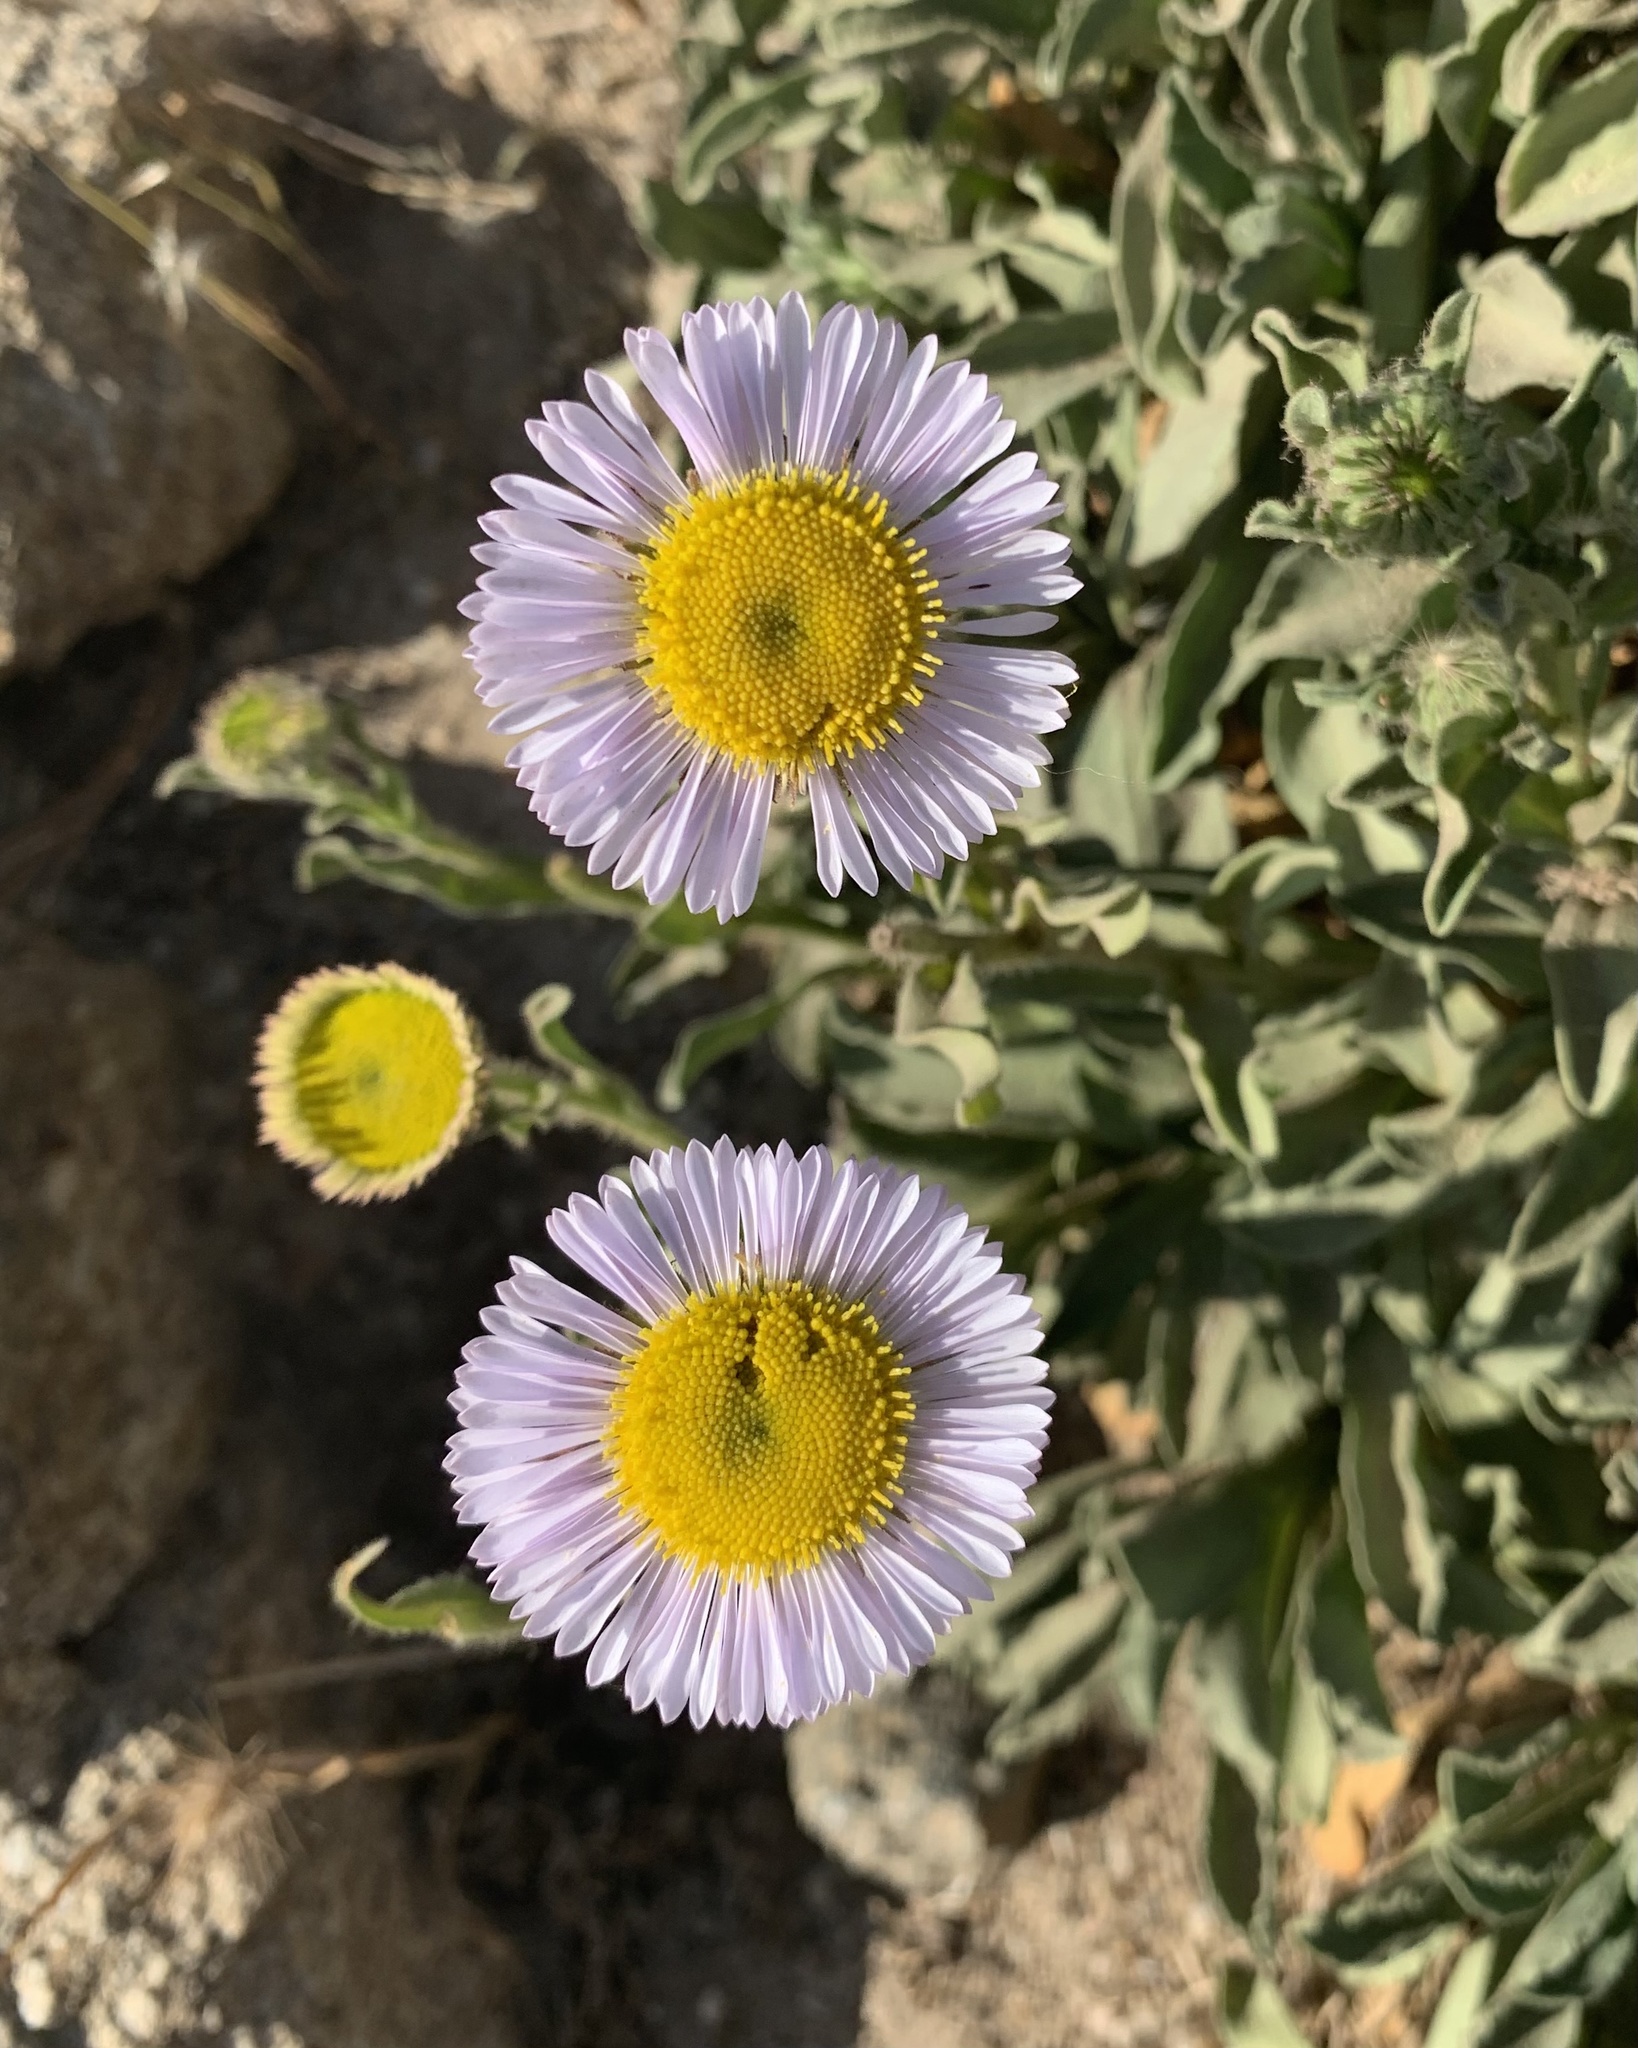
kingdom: Plantae
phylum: Tracheophyta
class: Magnoliopsida
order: Asterales
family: Asteraceae
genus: Erigeron
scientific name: Erigeron glaucus
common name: Seaside daisy
